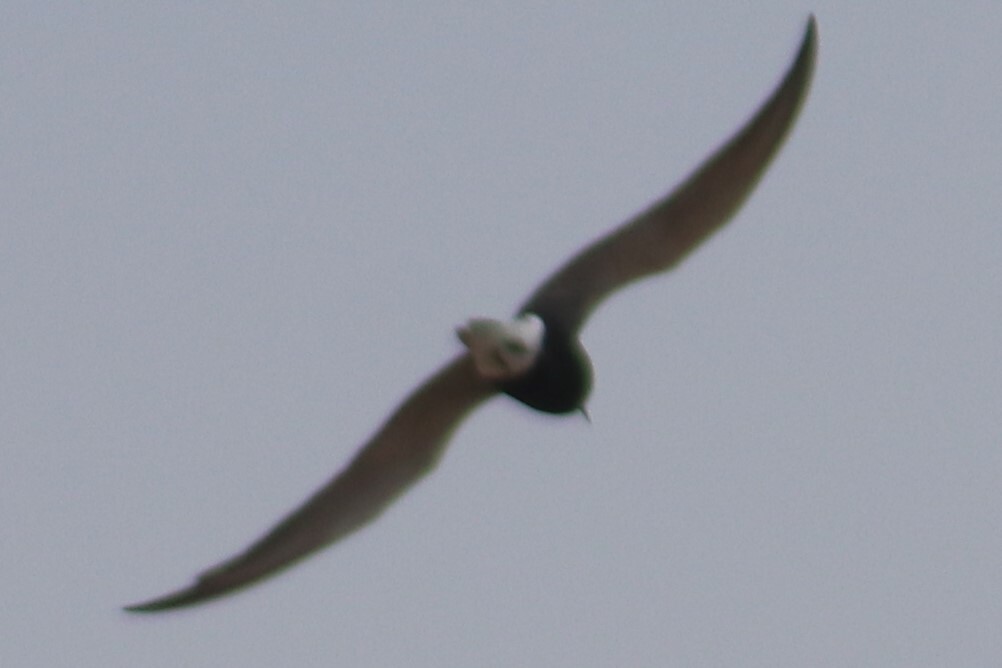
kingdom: Animalia
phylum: Chordata
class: Aves
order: Charadriiformes
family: Laridae
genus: Chlidonias
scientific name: Chlidonias niger
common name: Black tern
